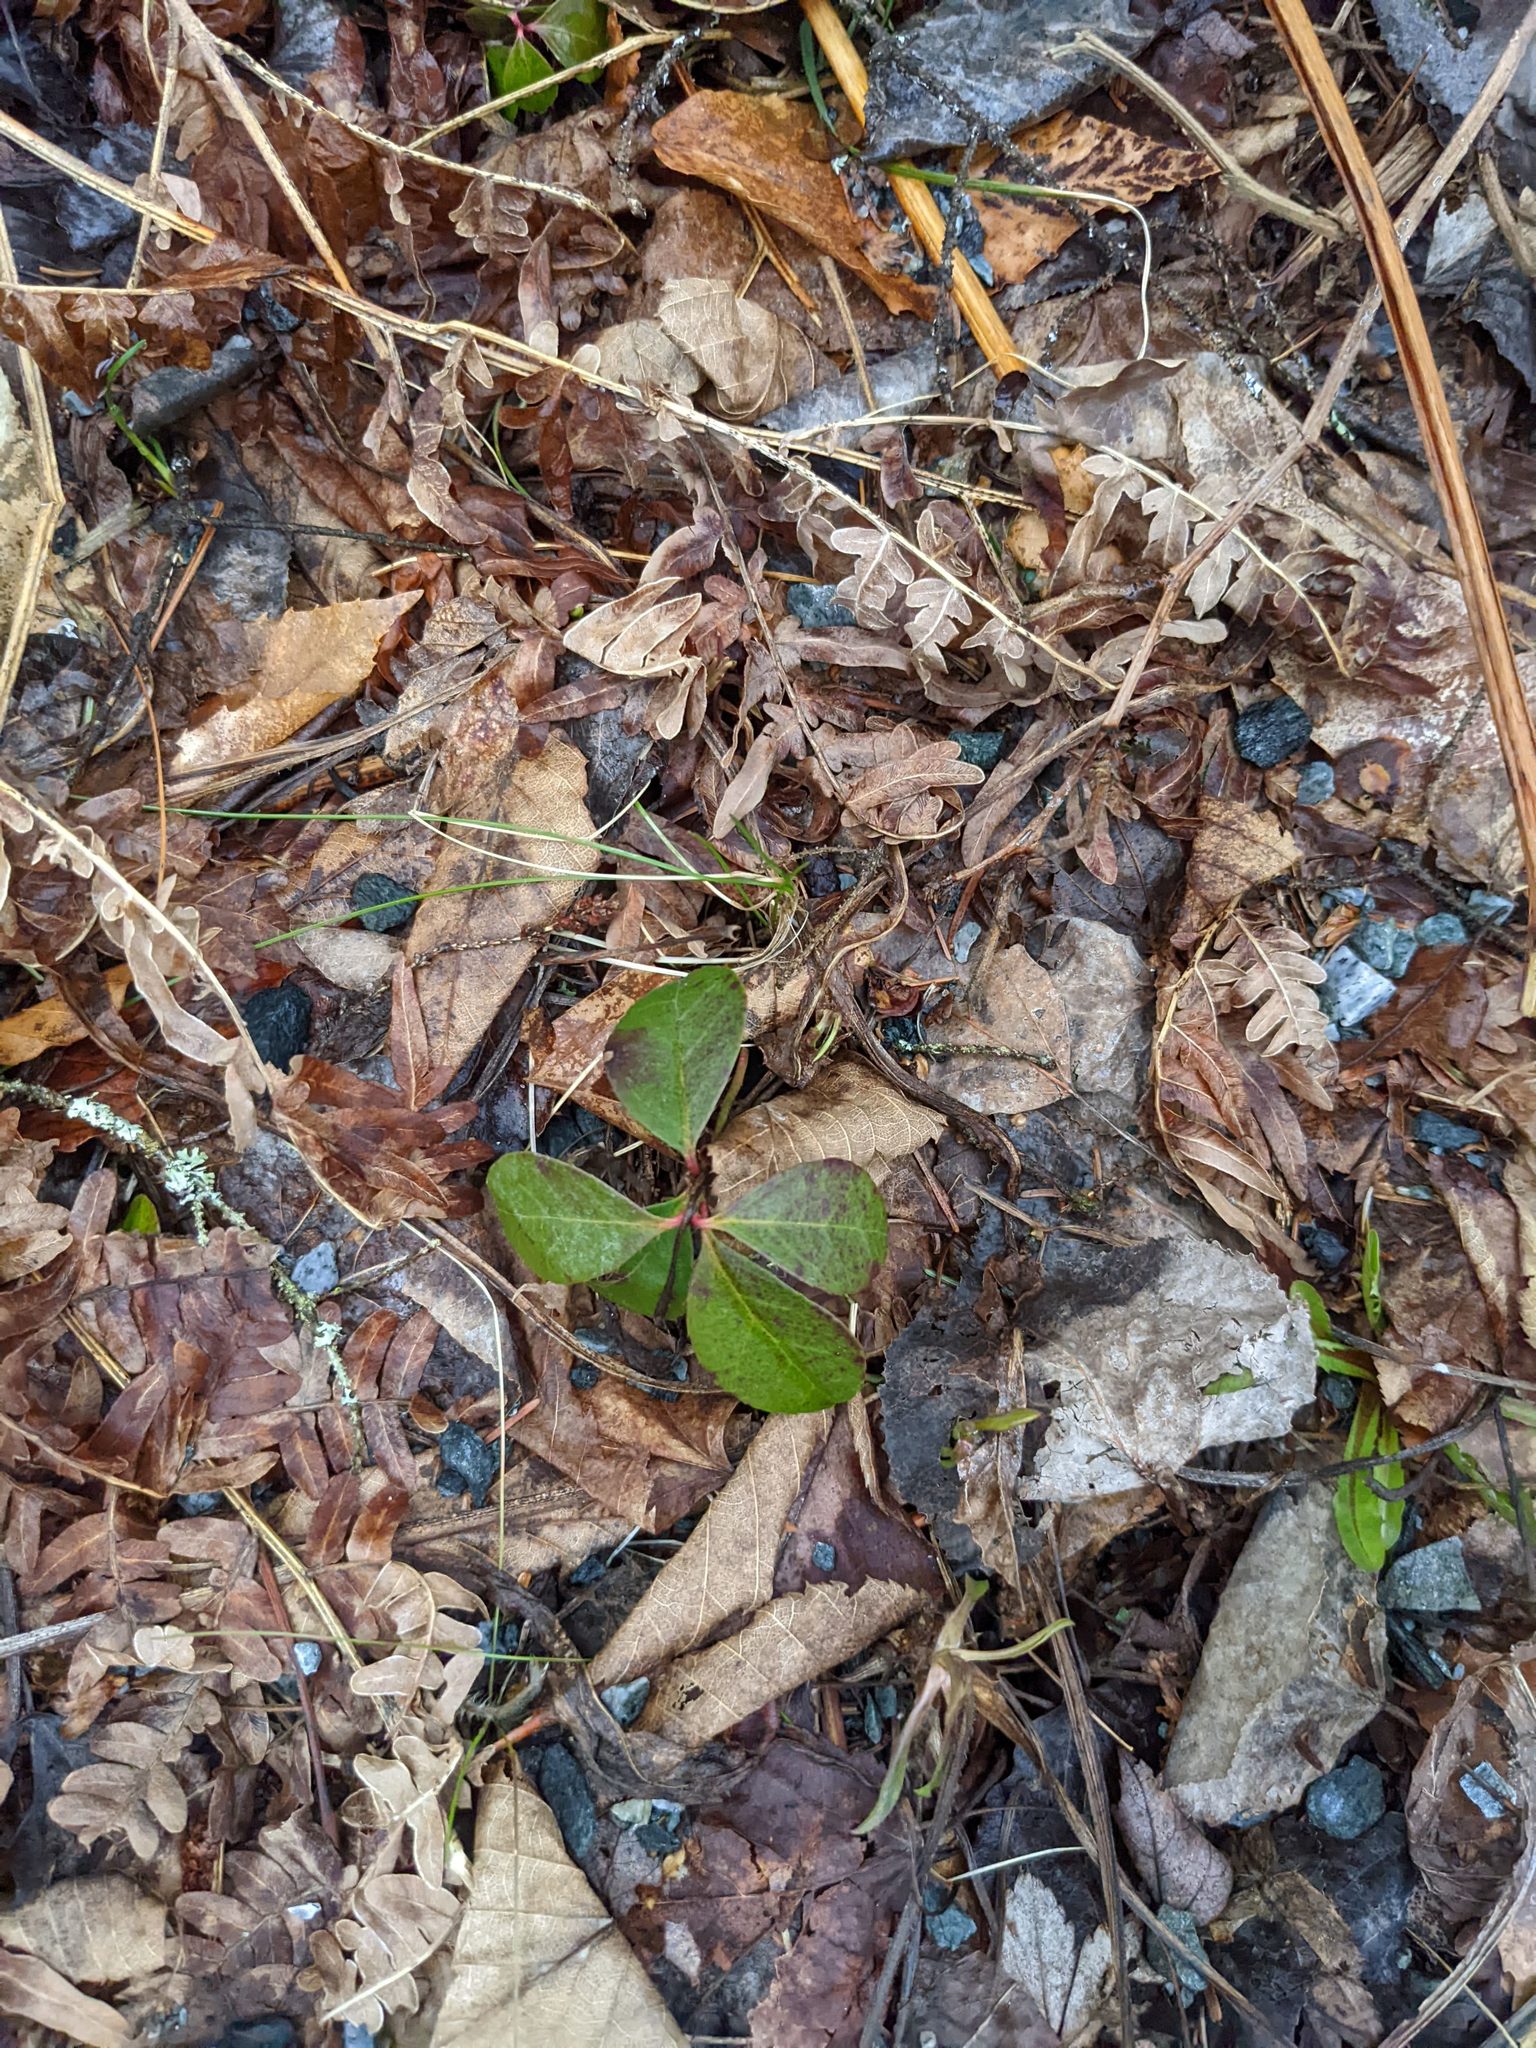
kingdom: Plantae
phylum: Tracheophyta
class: Magnoliopsida
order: Ericales
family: Ericaceae
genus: Gaultheria
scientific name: Gaultheria procumbens
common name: Checkerberry
